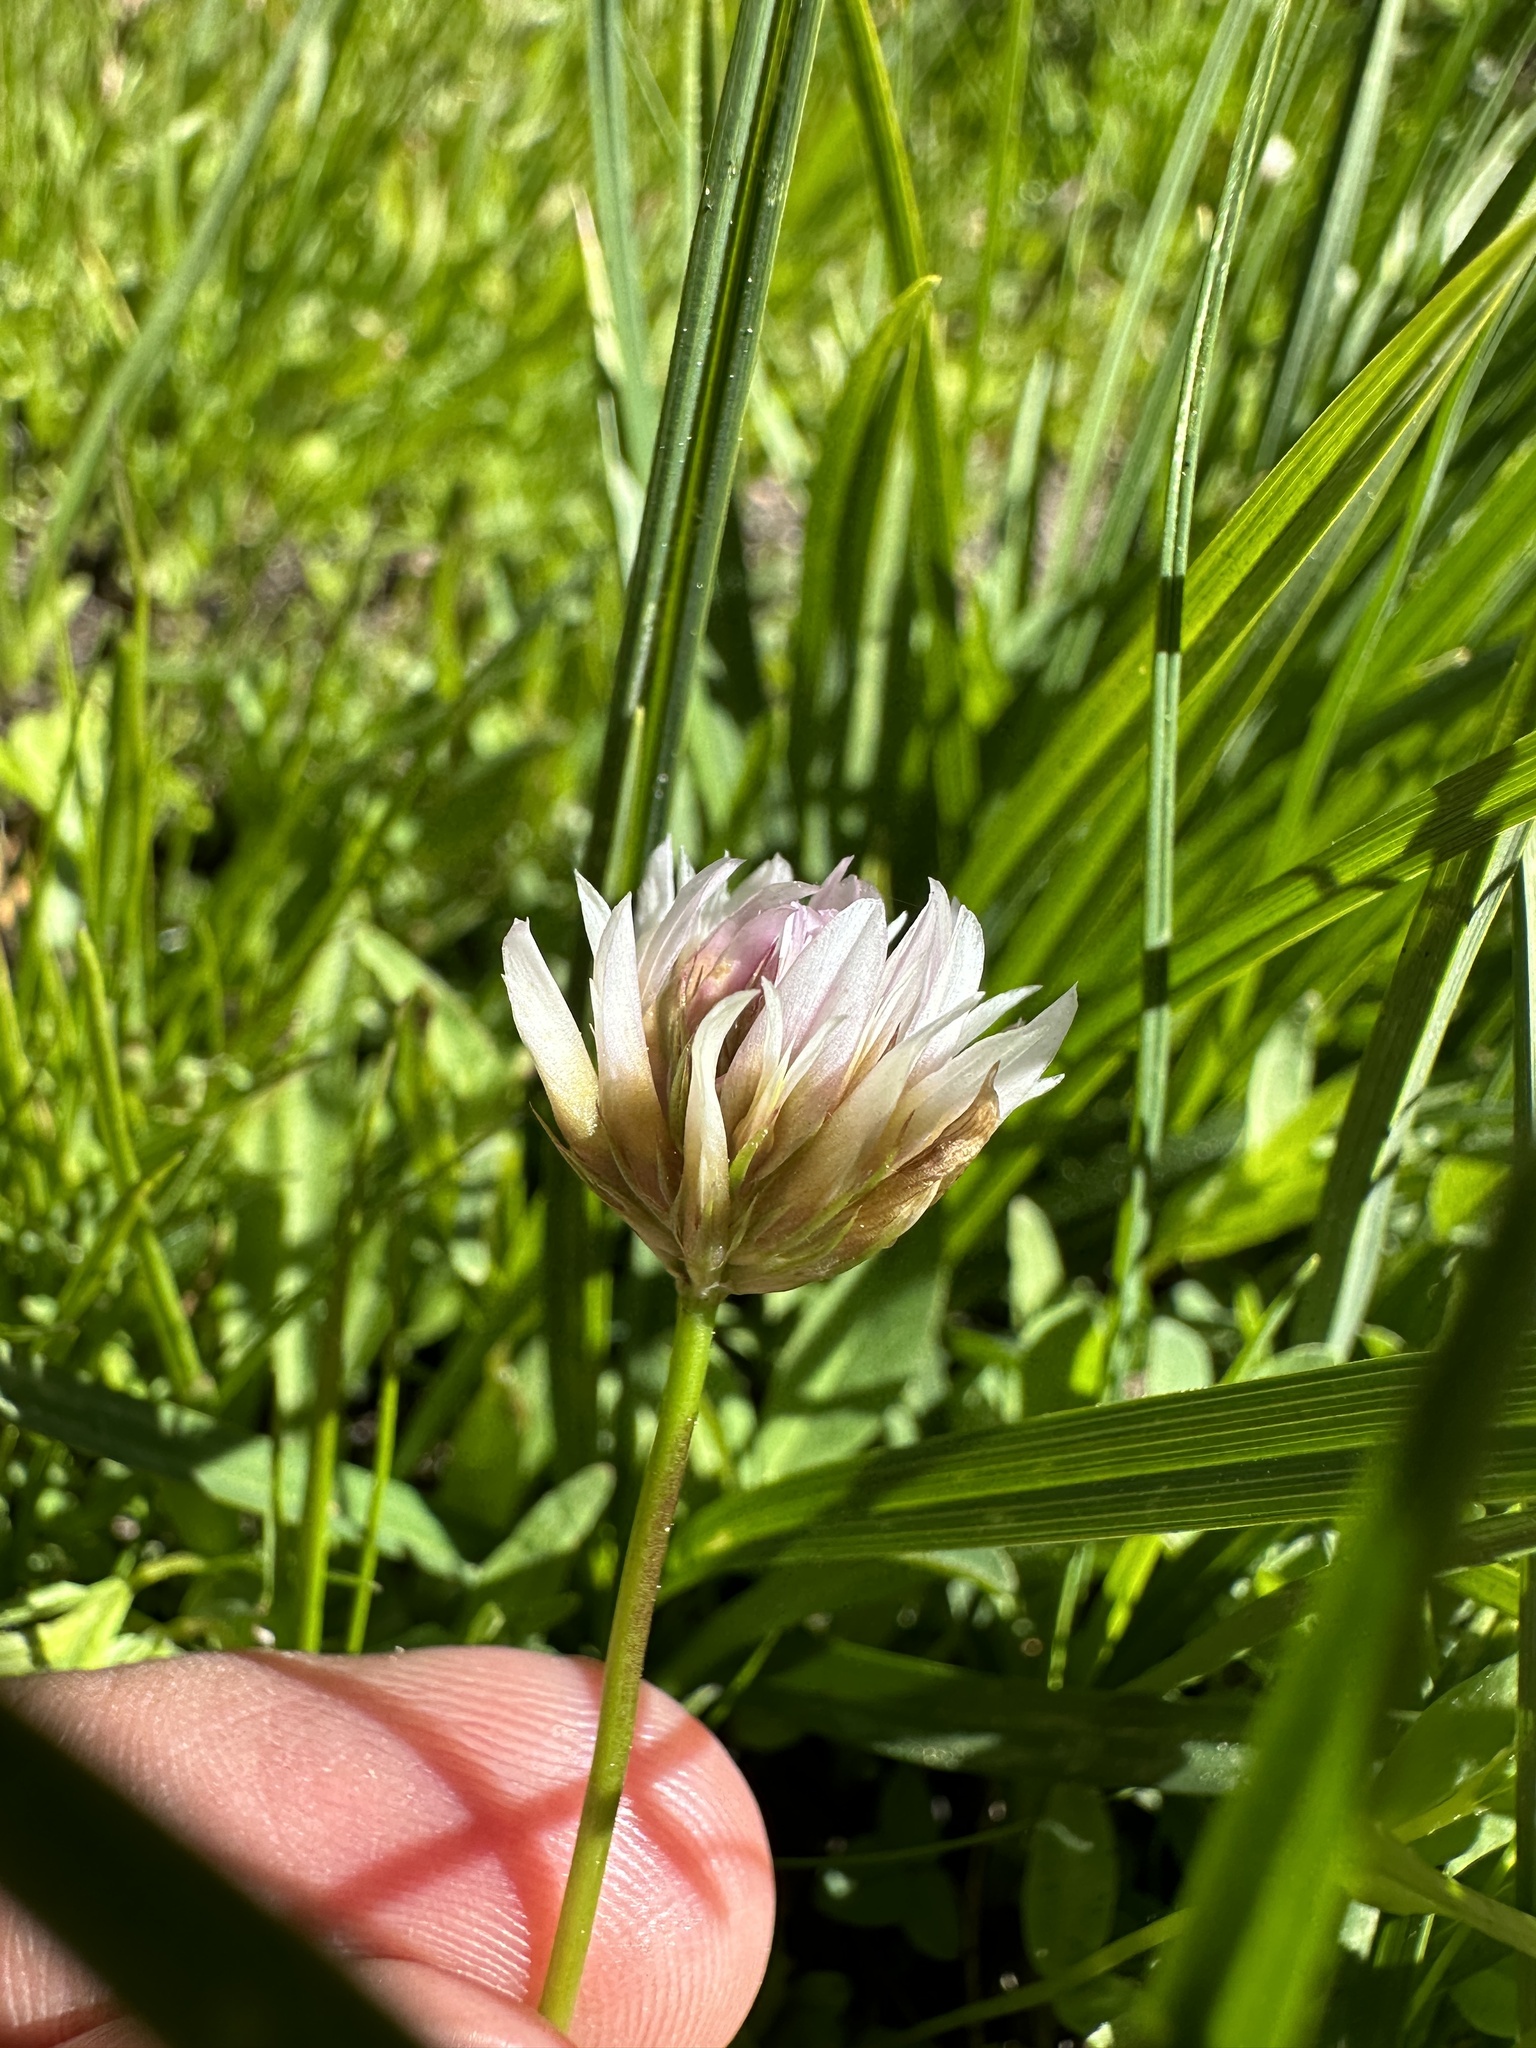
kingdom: Plantae
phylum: Tracheophyta
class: Magnoliopsida
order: Fabales
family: Fabaceae
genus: Trifolium
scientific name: Trifolium longipes
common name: Long-stalk clover
